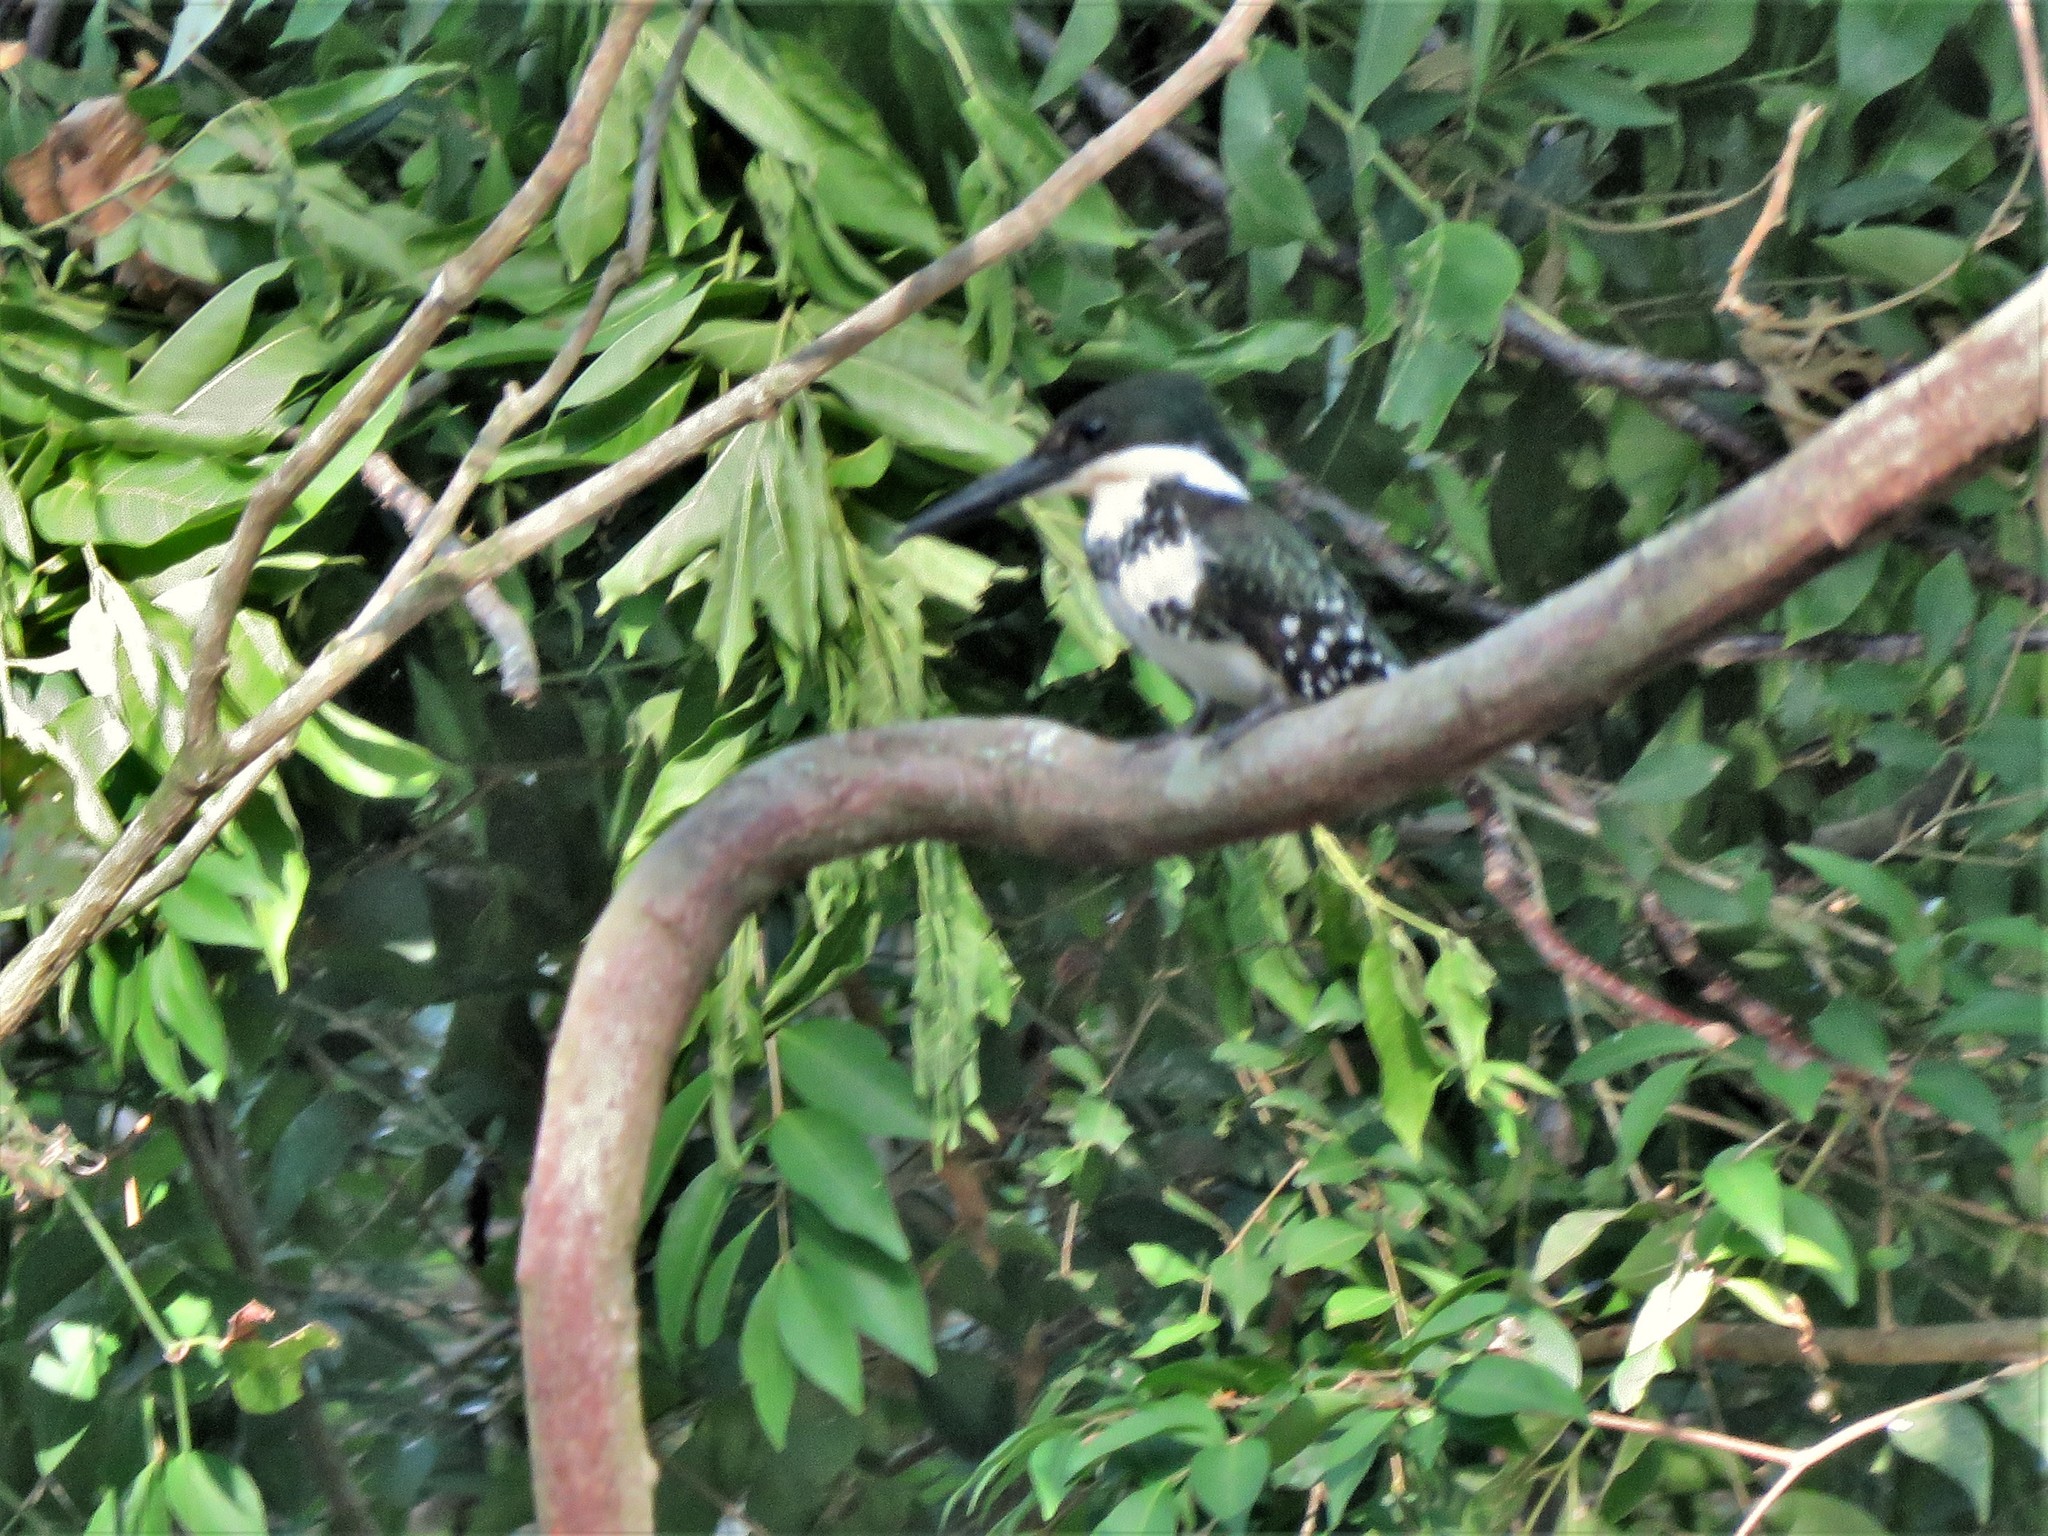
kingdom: Animalia
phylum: Chordata
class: Aves
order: Coraciiformes
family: Alcedinidae
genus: Chloroceryle
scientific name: Chloroceryle americana
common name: Green kingfisher
